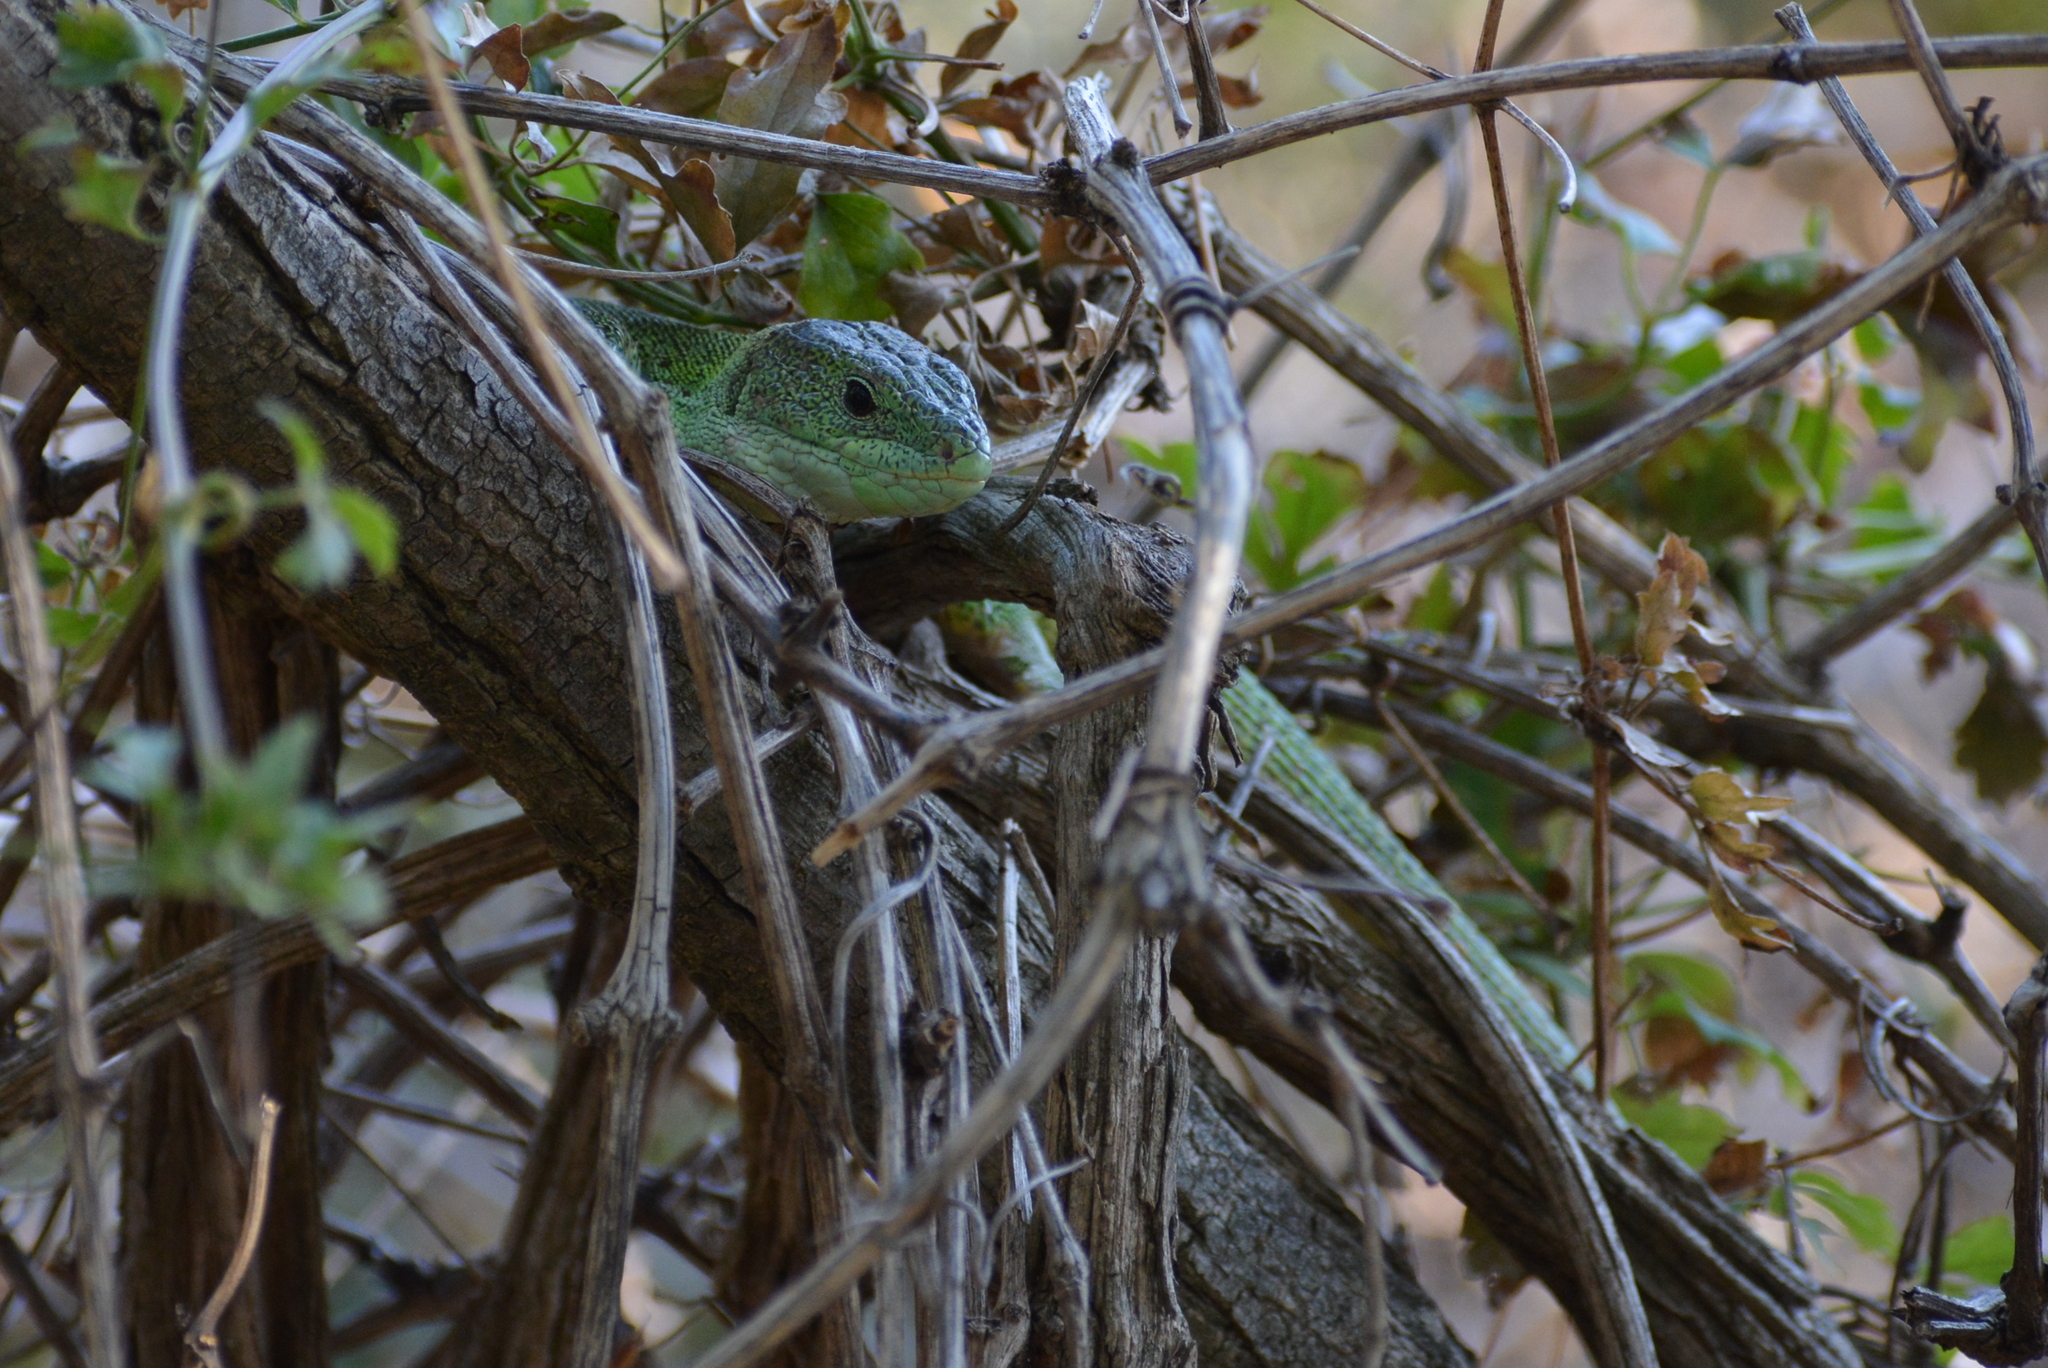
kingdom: Animalia
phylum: Chordata
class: Squamata
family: Lacertidae
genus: Lacerta
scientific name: Lacerta trilineata
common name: Balkan green lizard
